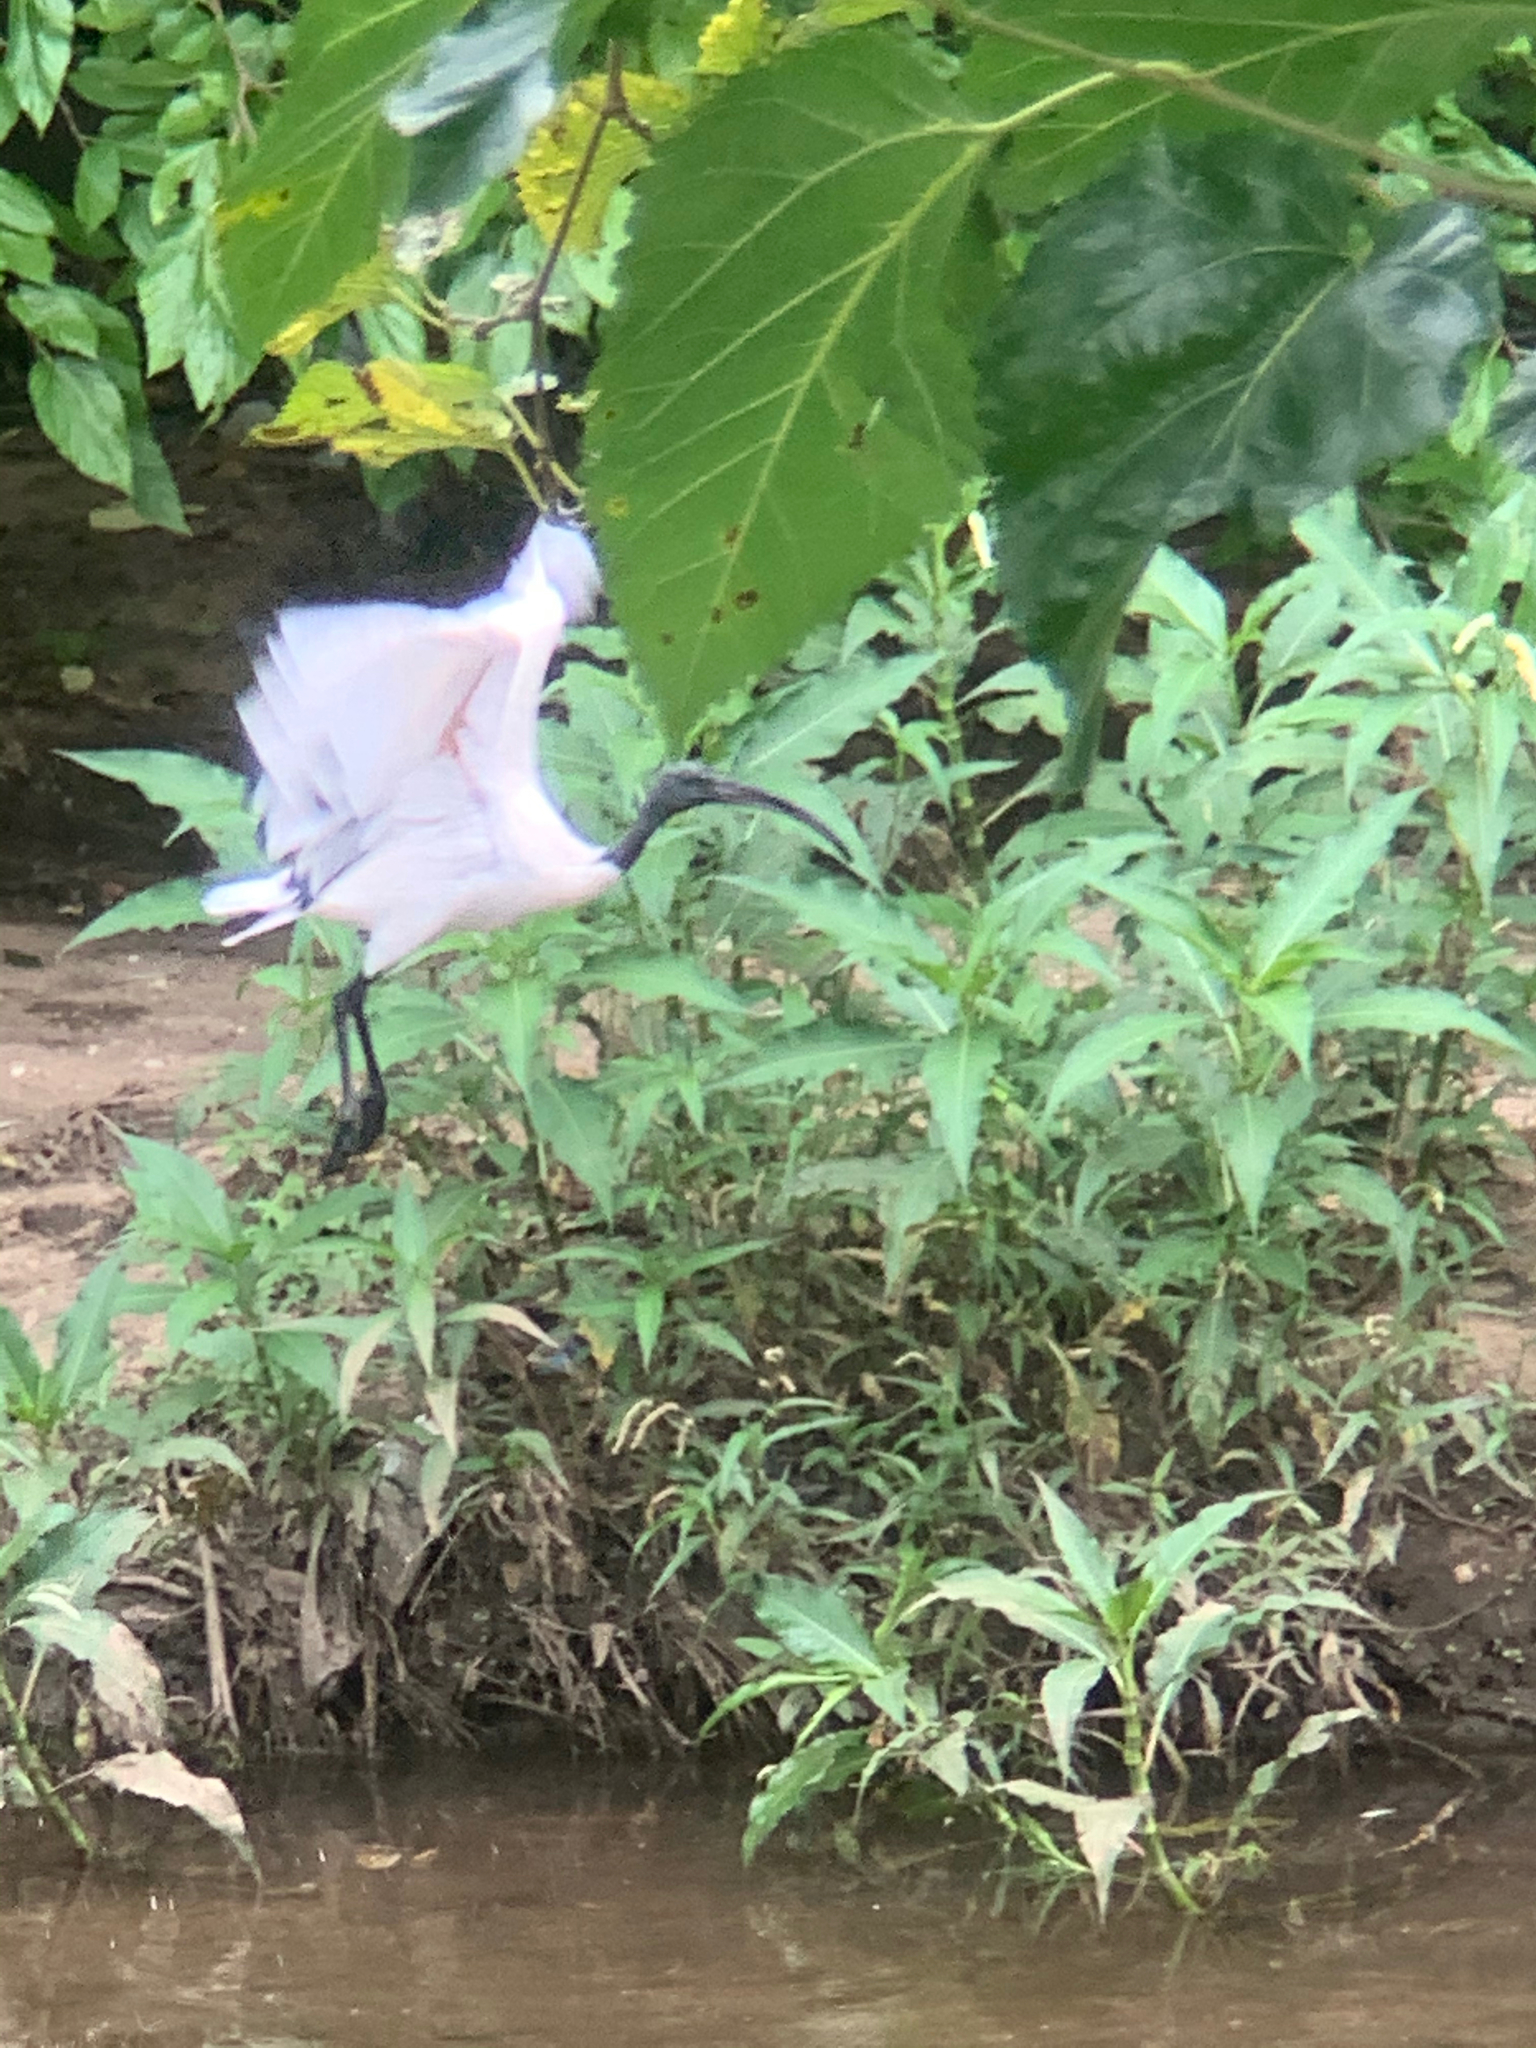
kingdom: Animalia
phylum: Chordata
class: Aves
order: Pelecaniformes
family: Threskiornithidae
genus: Threskiornis
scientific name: Threskiornis aethiopicus
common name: Sacred ibis
